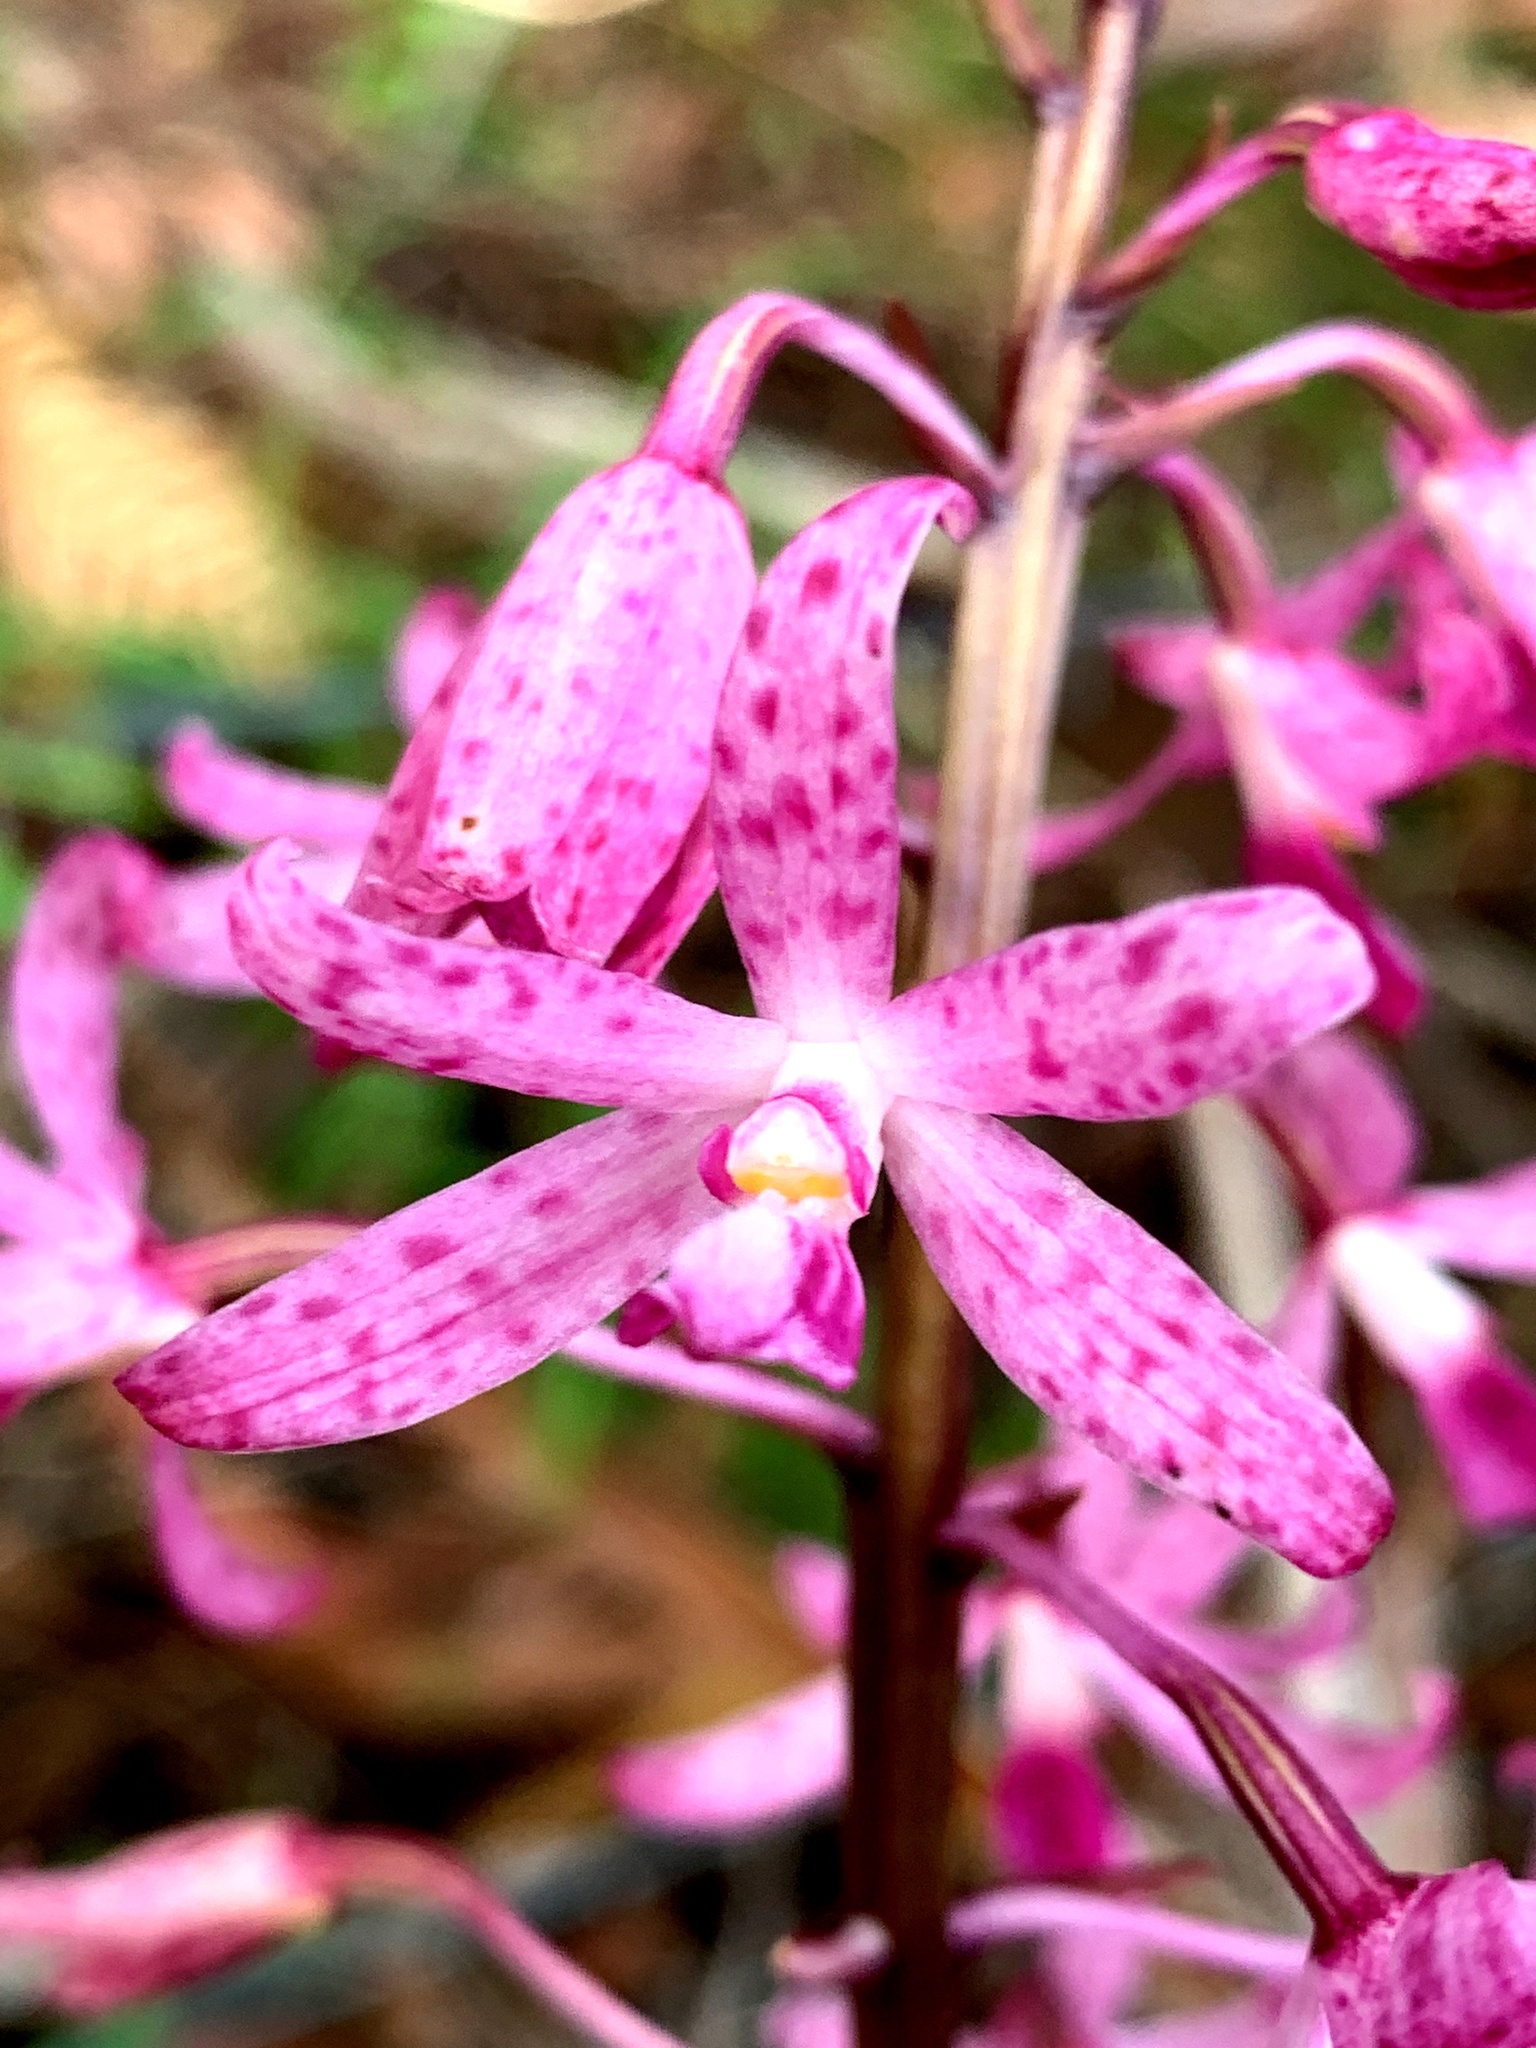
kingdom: Plantae
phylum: Tracheophyta
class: Liliopsida
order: Asparagales
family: Orchidaceae
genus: Dipodium
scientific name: Dipodium roseum
